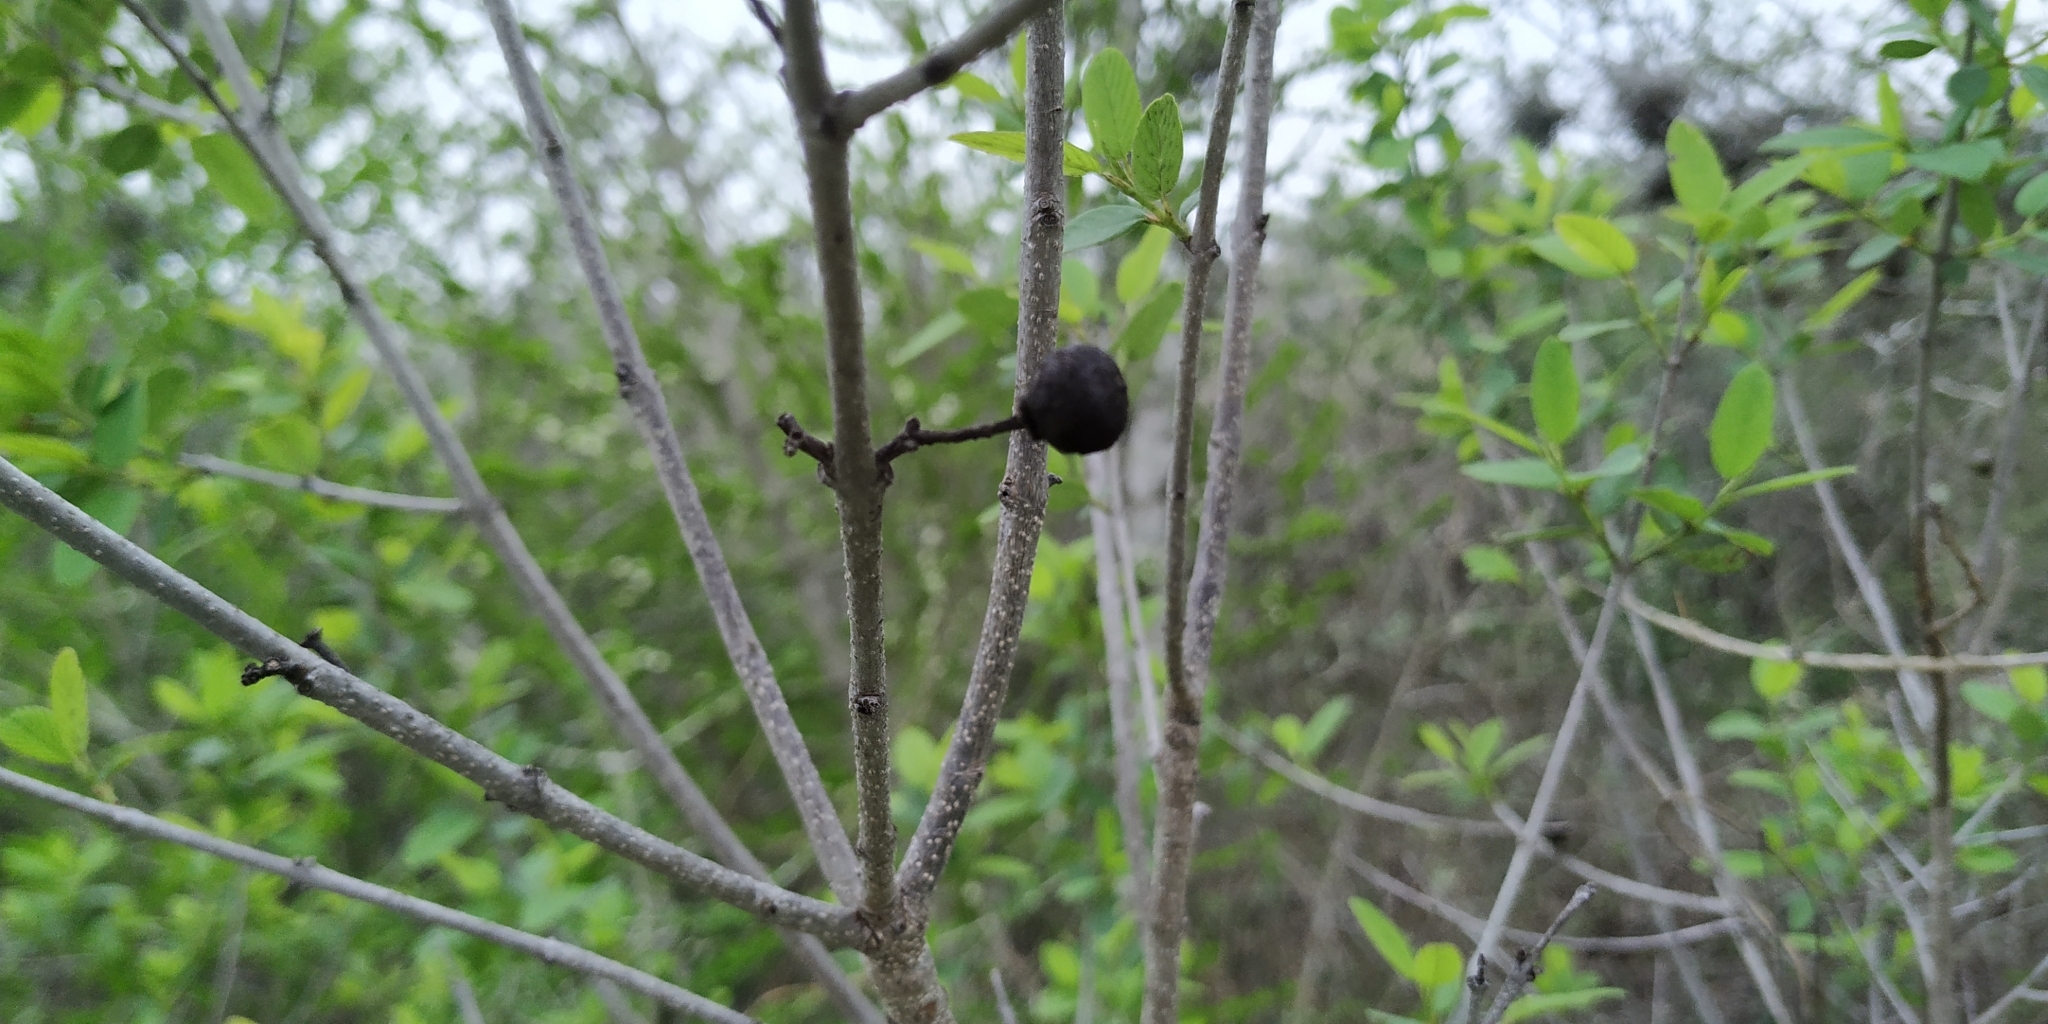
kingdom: Plantae
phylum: Tracheophyta
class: Magnoliopsida
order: Rosales
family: Rhamnaceae
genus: Karwinskia
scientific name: Karwinskia humboldtiana
